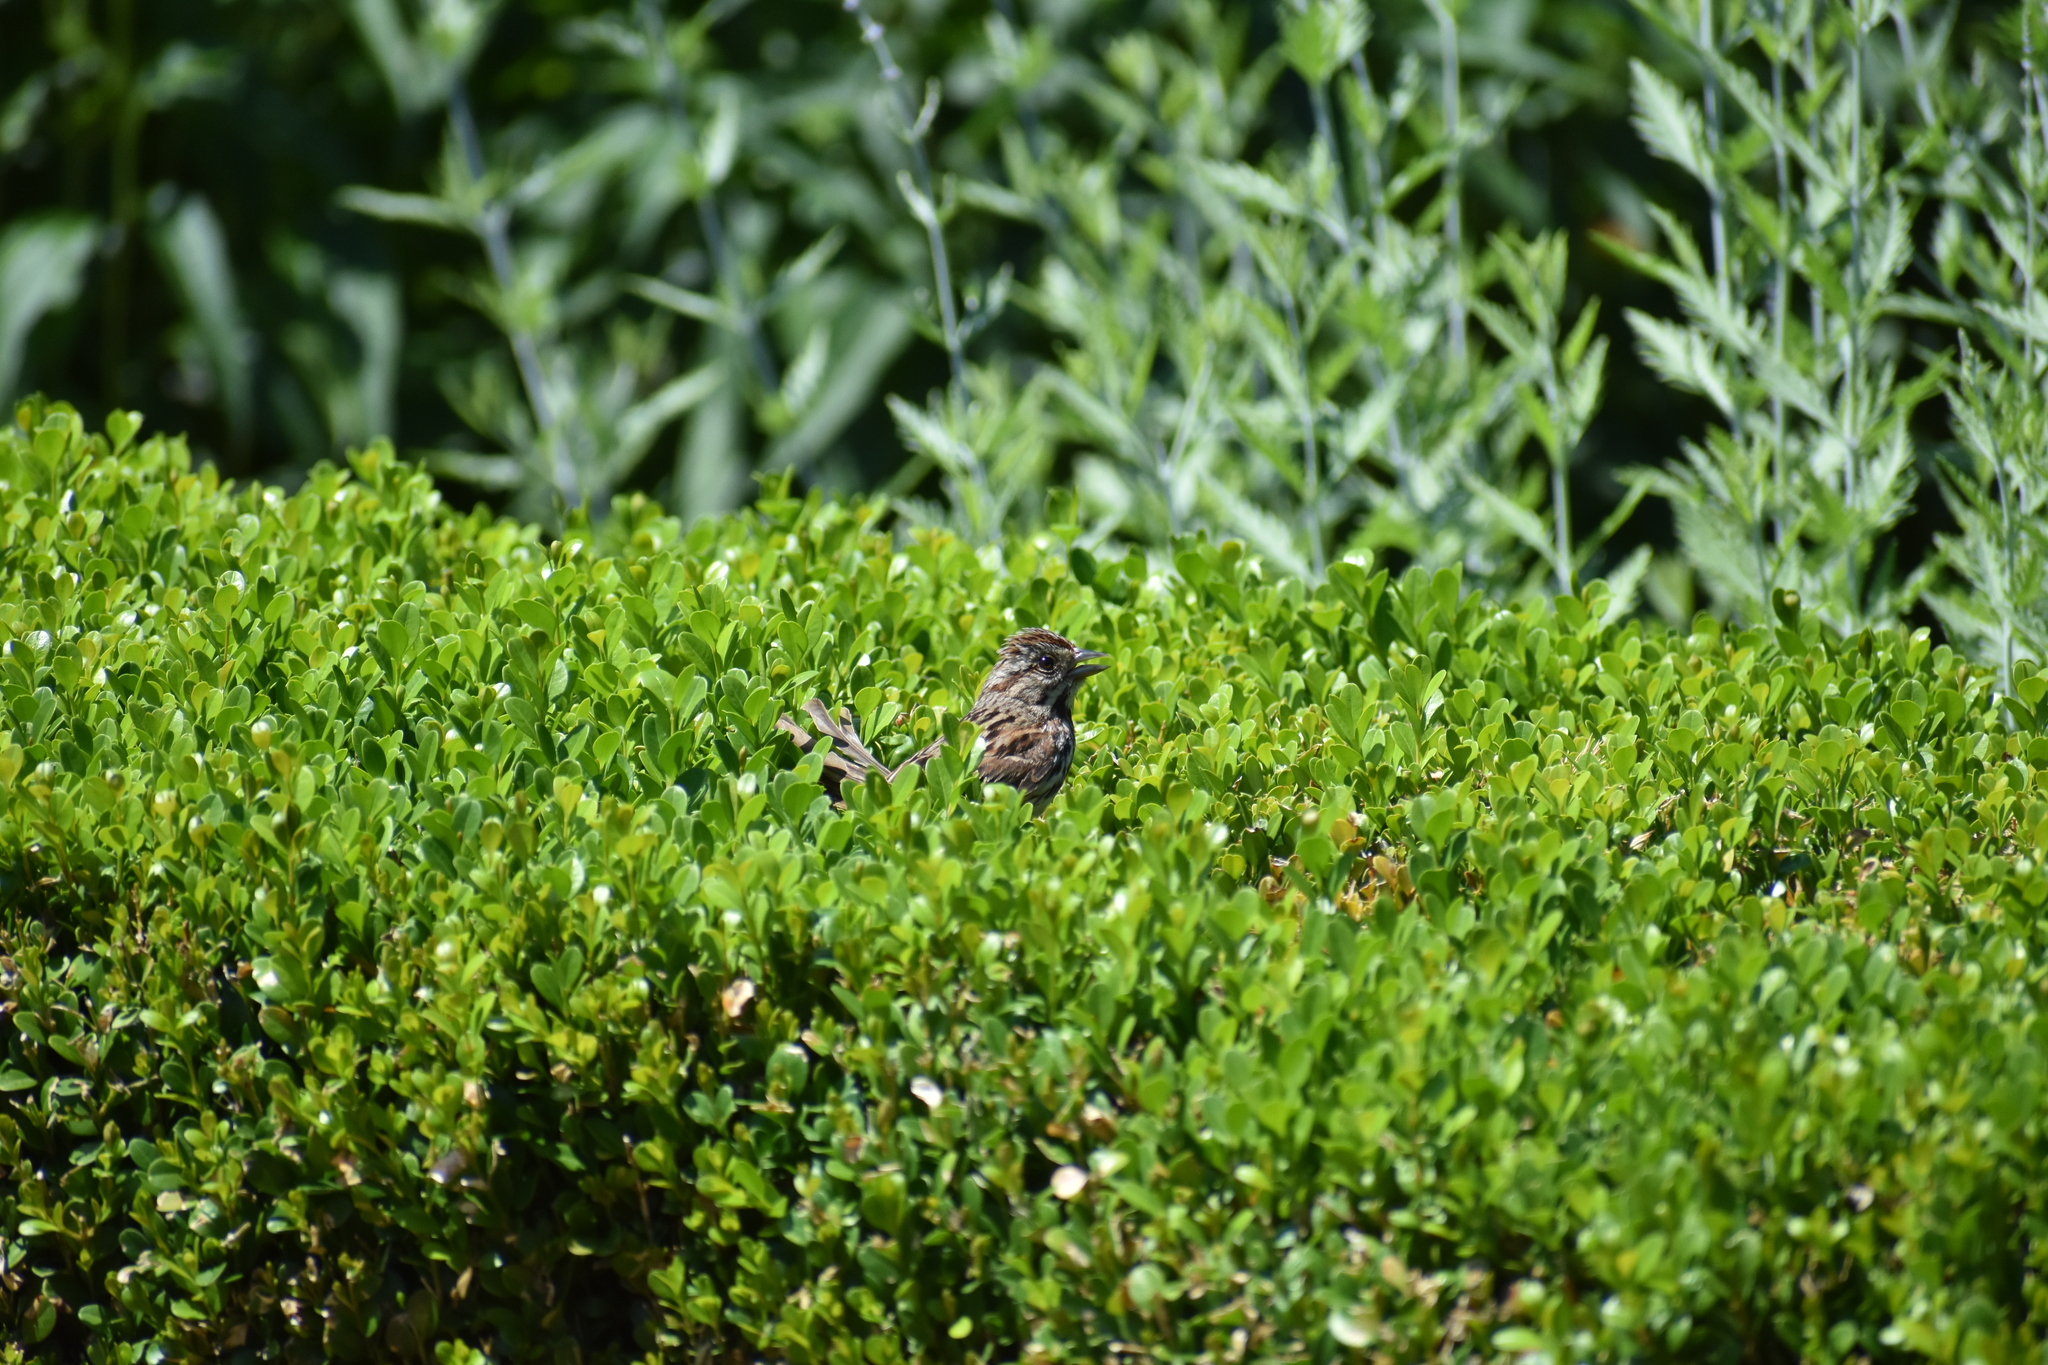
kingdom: Animalia
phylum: Chordata
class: Aves
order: Passeriformes
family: Passerellidae
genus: Melospiza
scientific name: Melospiza melodia
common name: Song sparrow
